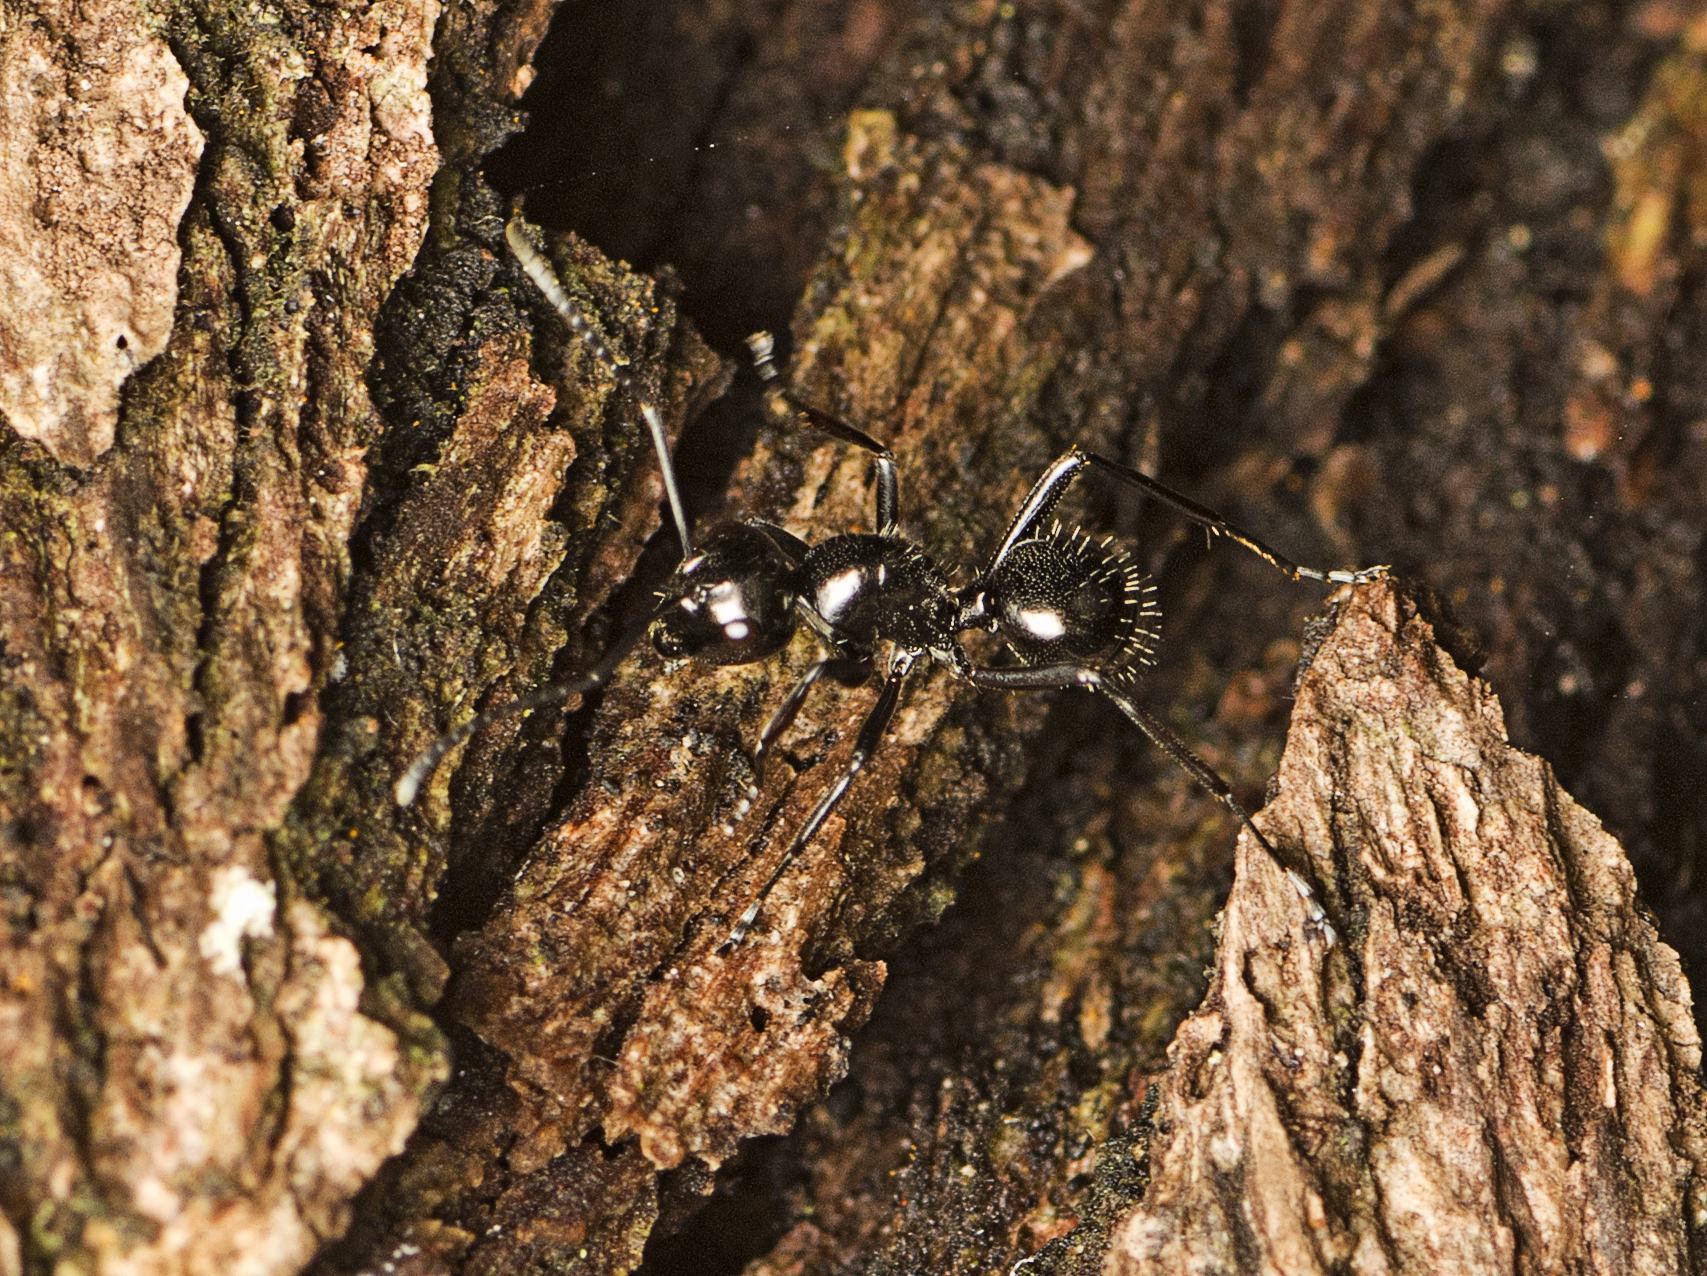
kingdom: Animalia
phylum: Arthropoda
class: Insecta
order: Hymenoptera
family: Formicidae
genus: Polyrhachis
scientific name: Polyrhachis pilosa
